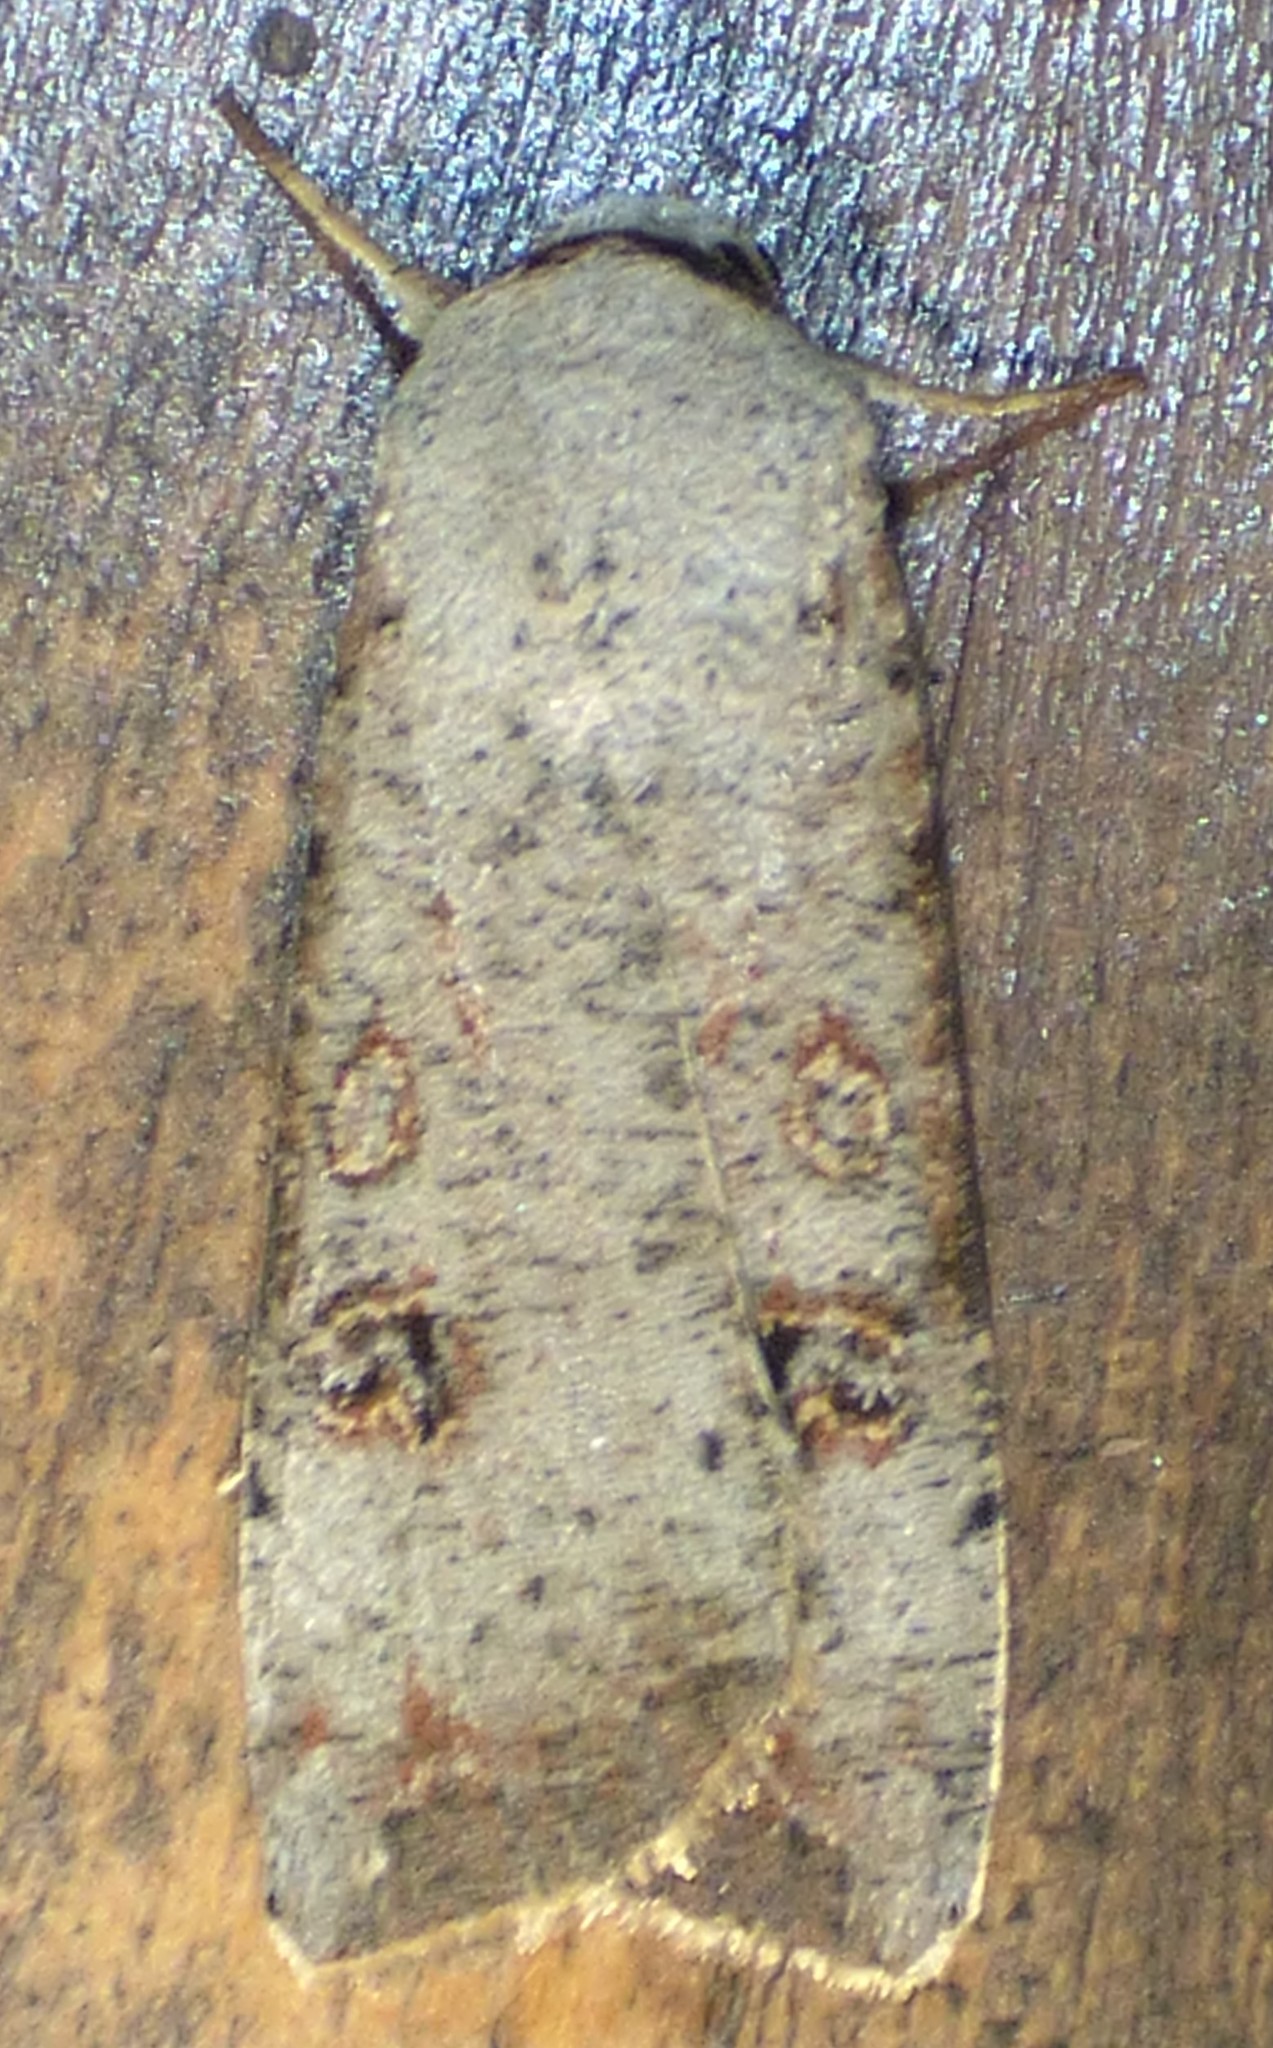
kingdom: Animalia
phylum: Arthropoda
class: Insecta
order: Lepidoptera
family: Noctuidae
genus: Anicla
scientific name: Anicla infecta
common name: Green cutworm
